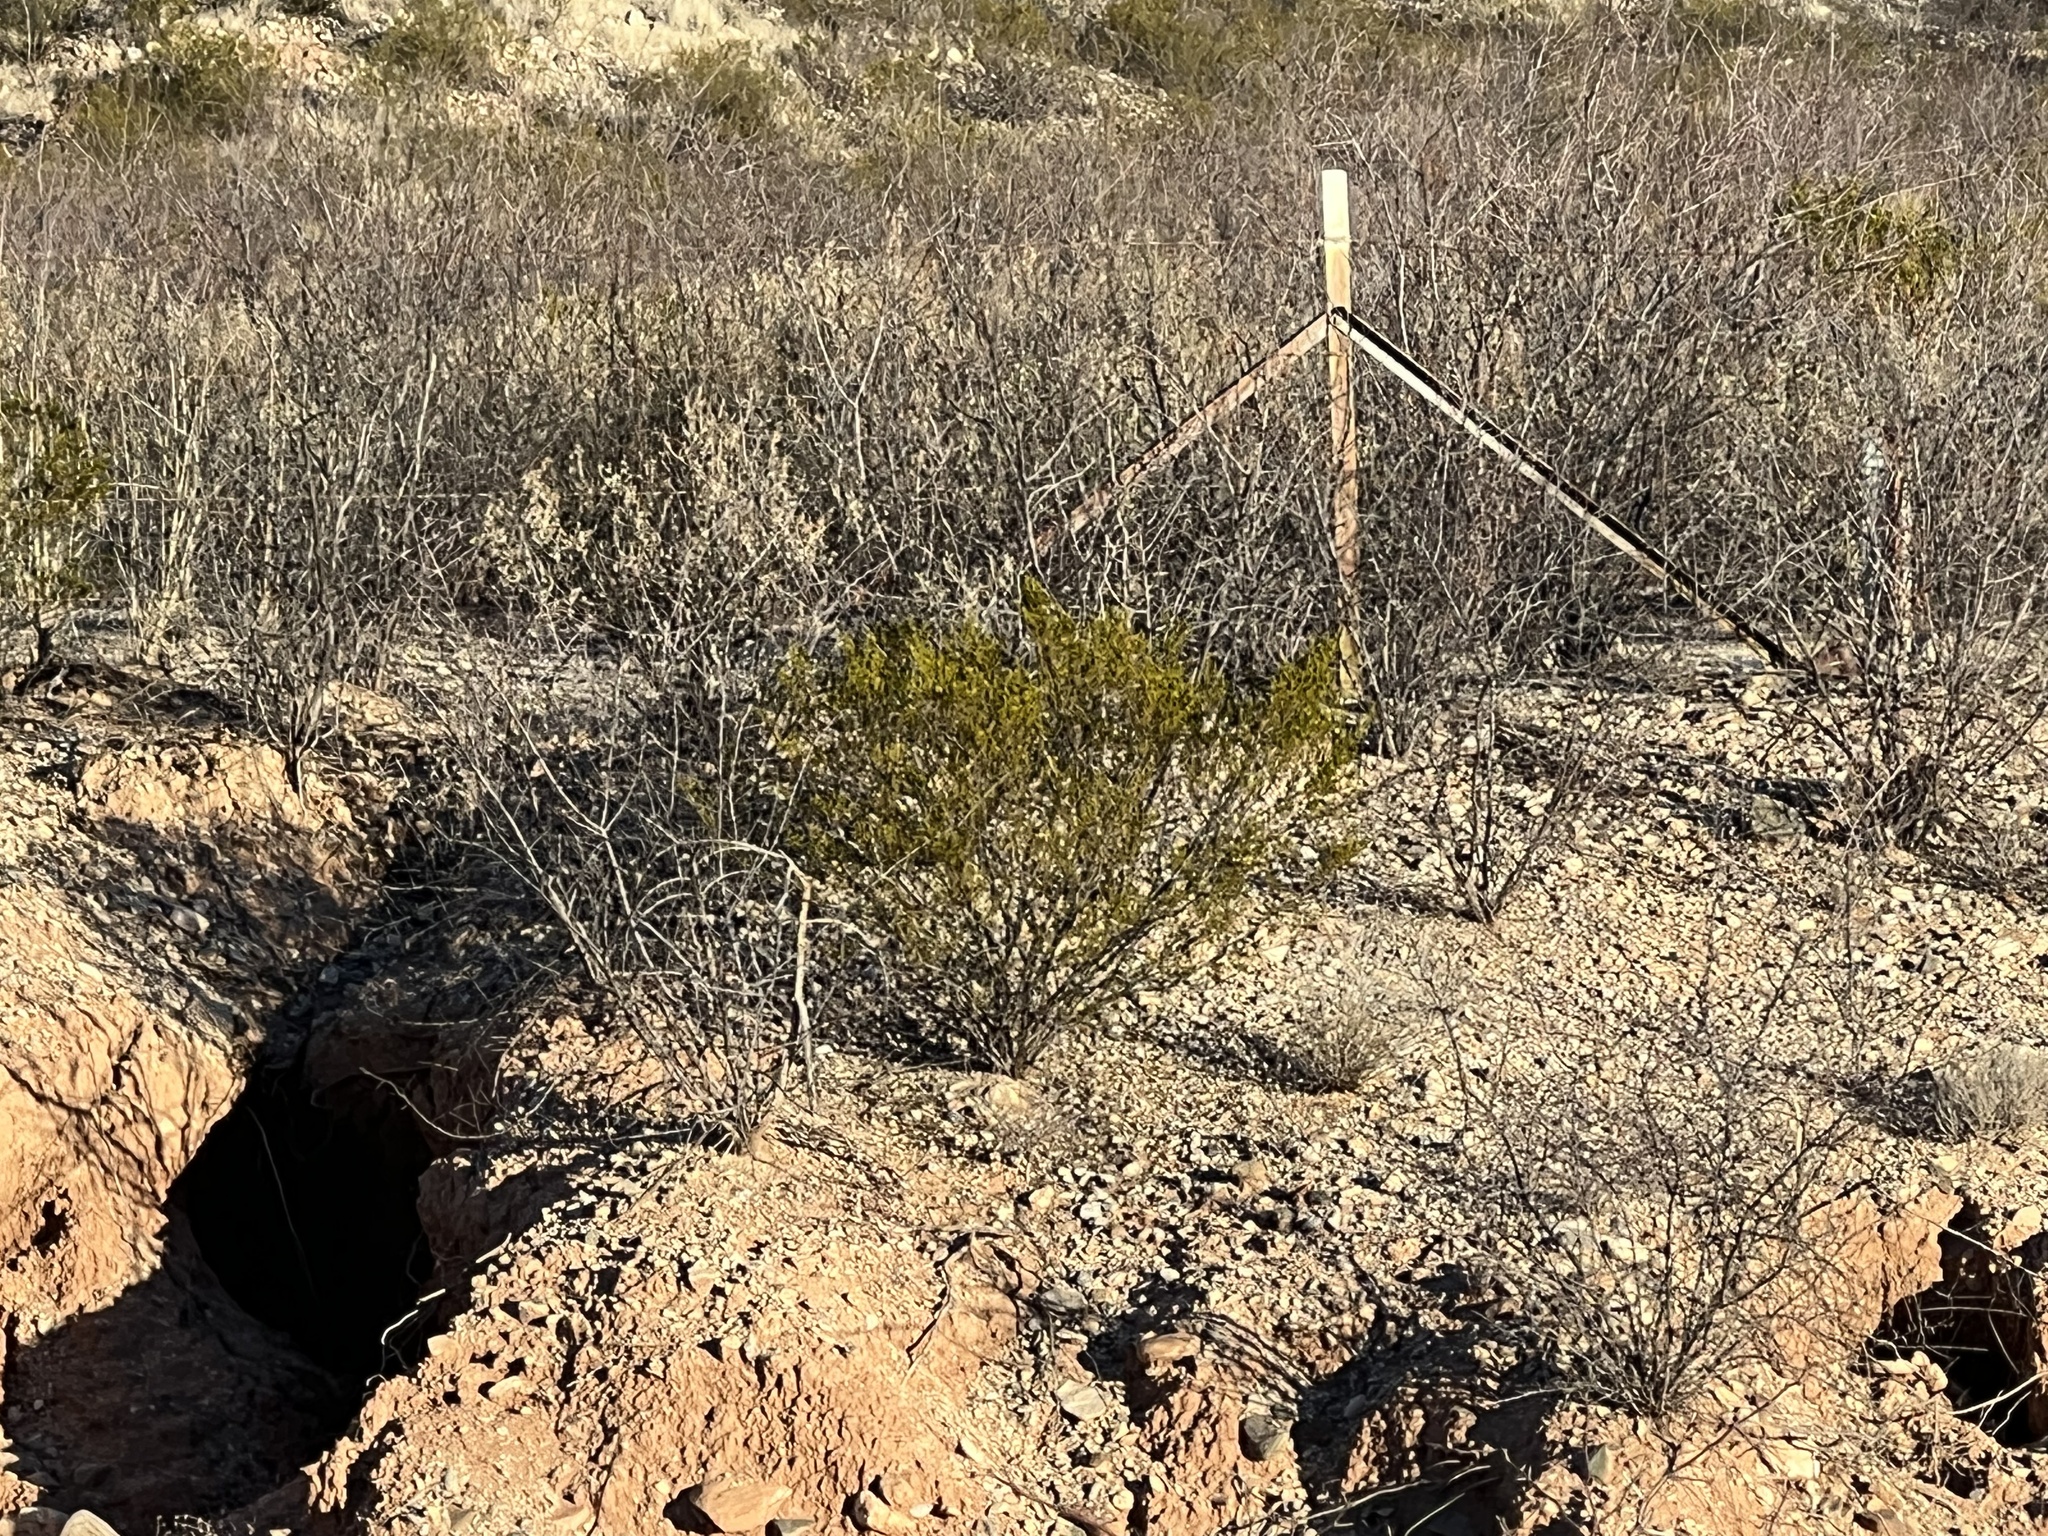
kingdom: Plantae
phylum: Tracheophyta
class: Magnoliopsida
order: Zygophyllales
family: Zygophyllaceae
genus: Larrea
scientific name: Larrea tridentata
